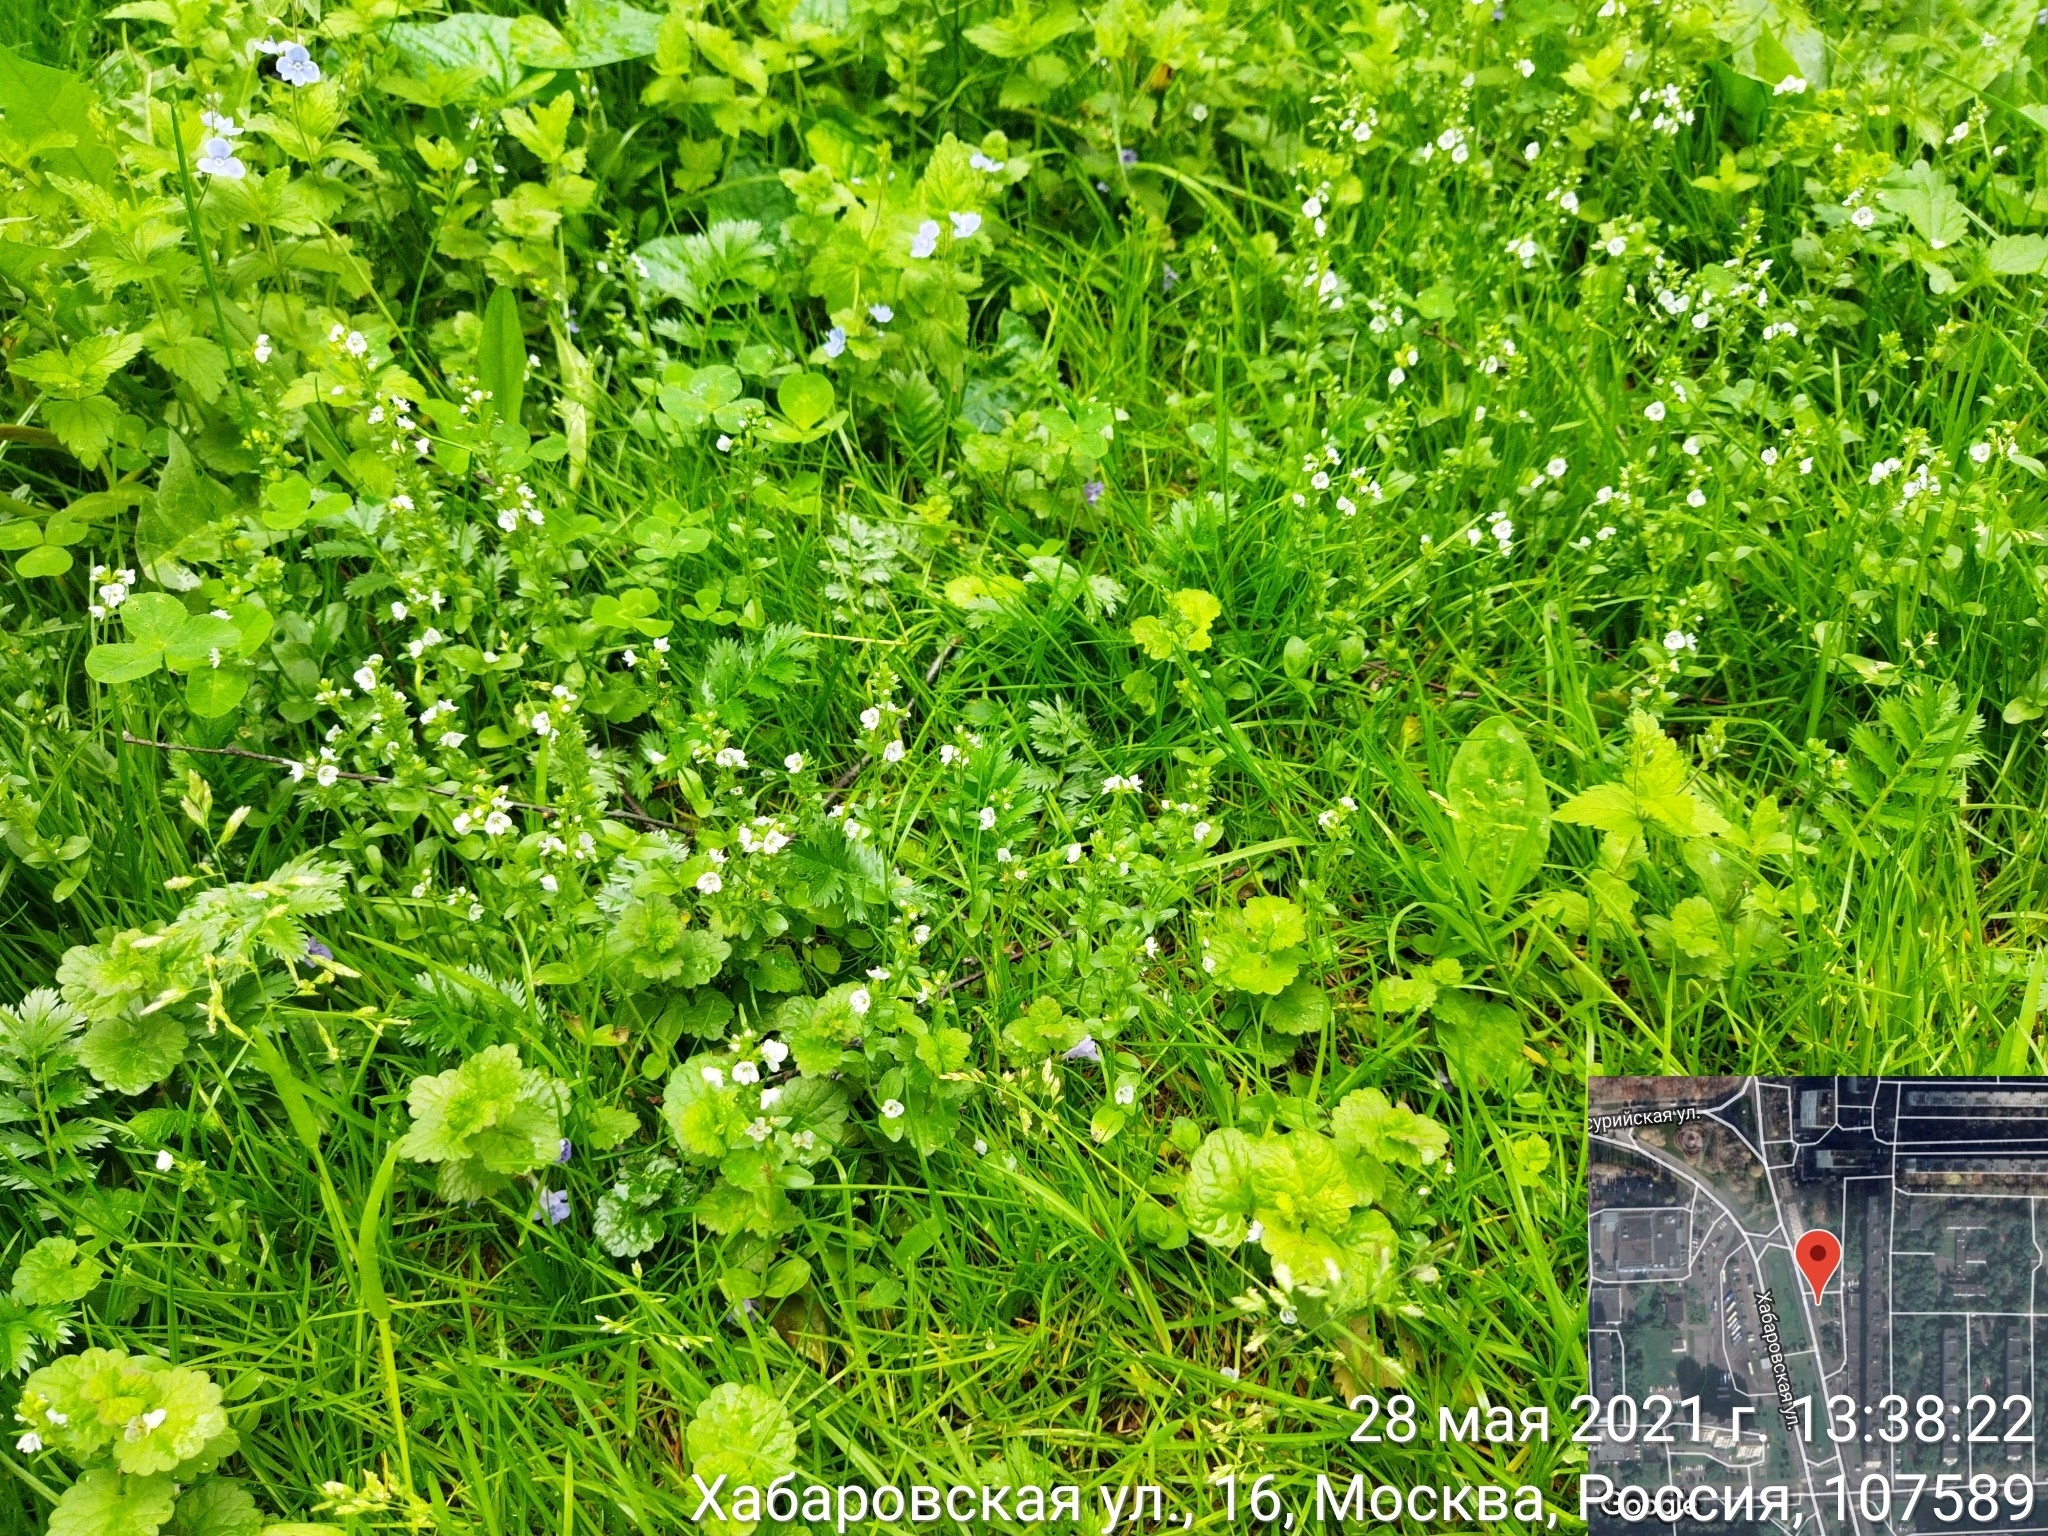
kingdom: Plantae
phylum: Tracheophyta
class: Magnoliopsida
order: Lamiales
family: Plantaginaceae
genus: Veronica
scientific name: Veronica serpyllifolia
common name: Thyme-leaved speedwell
